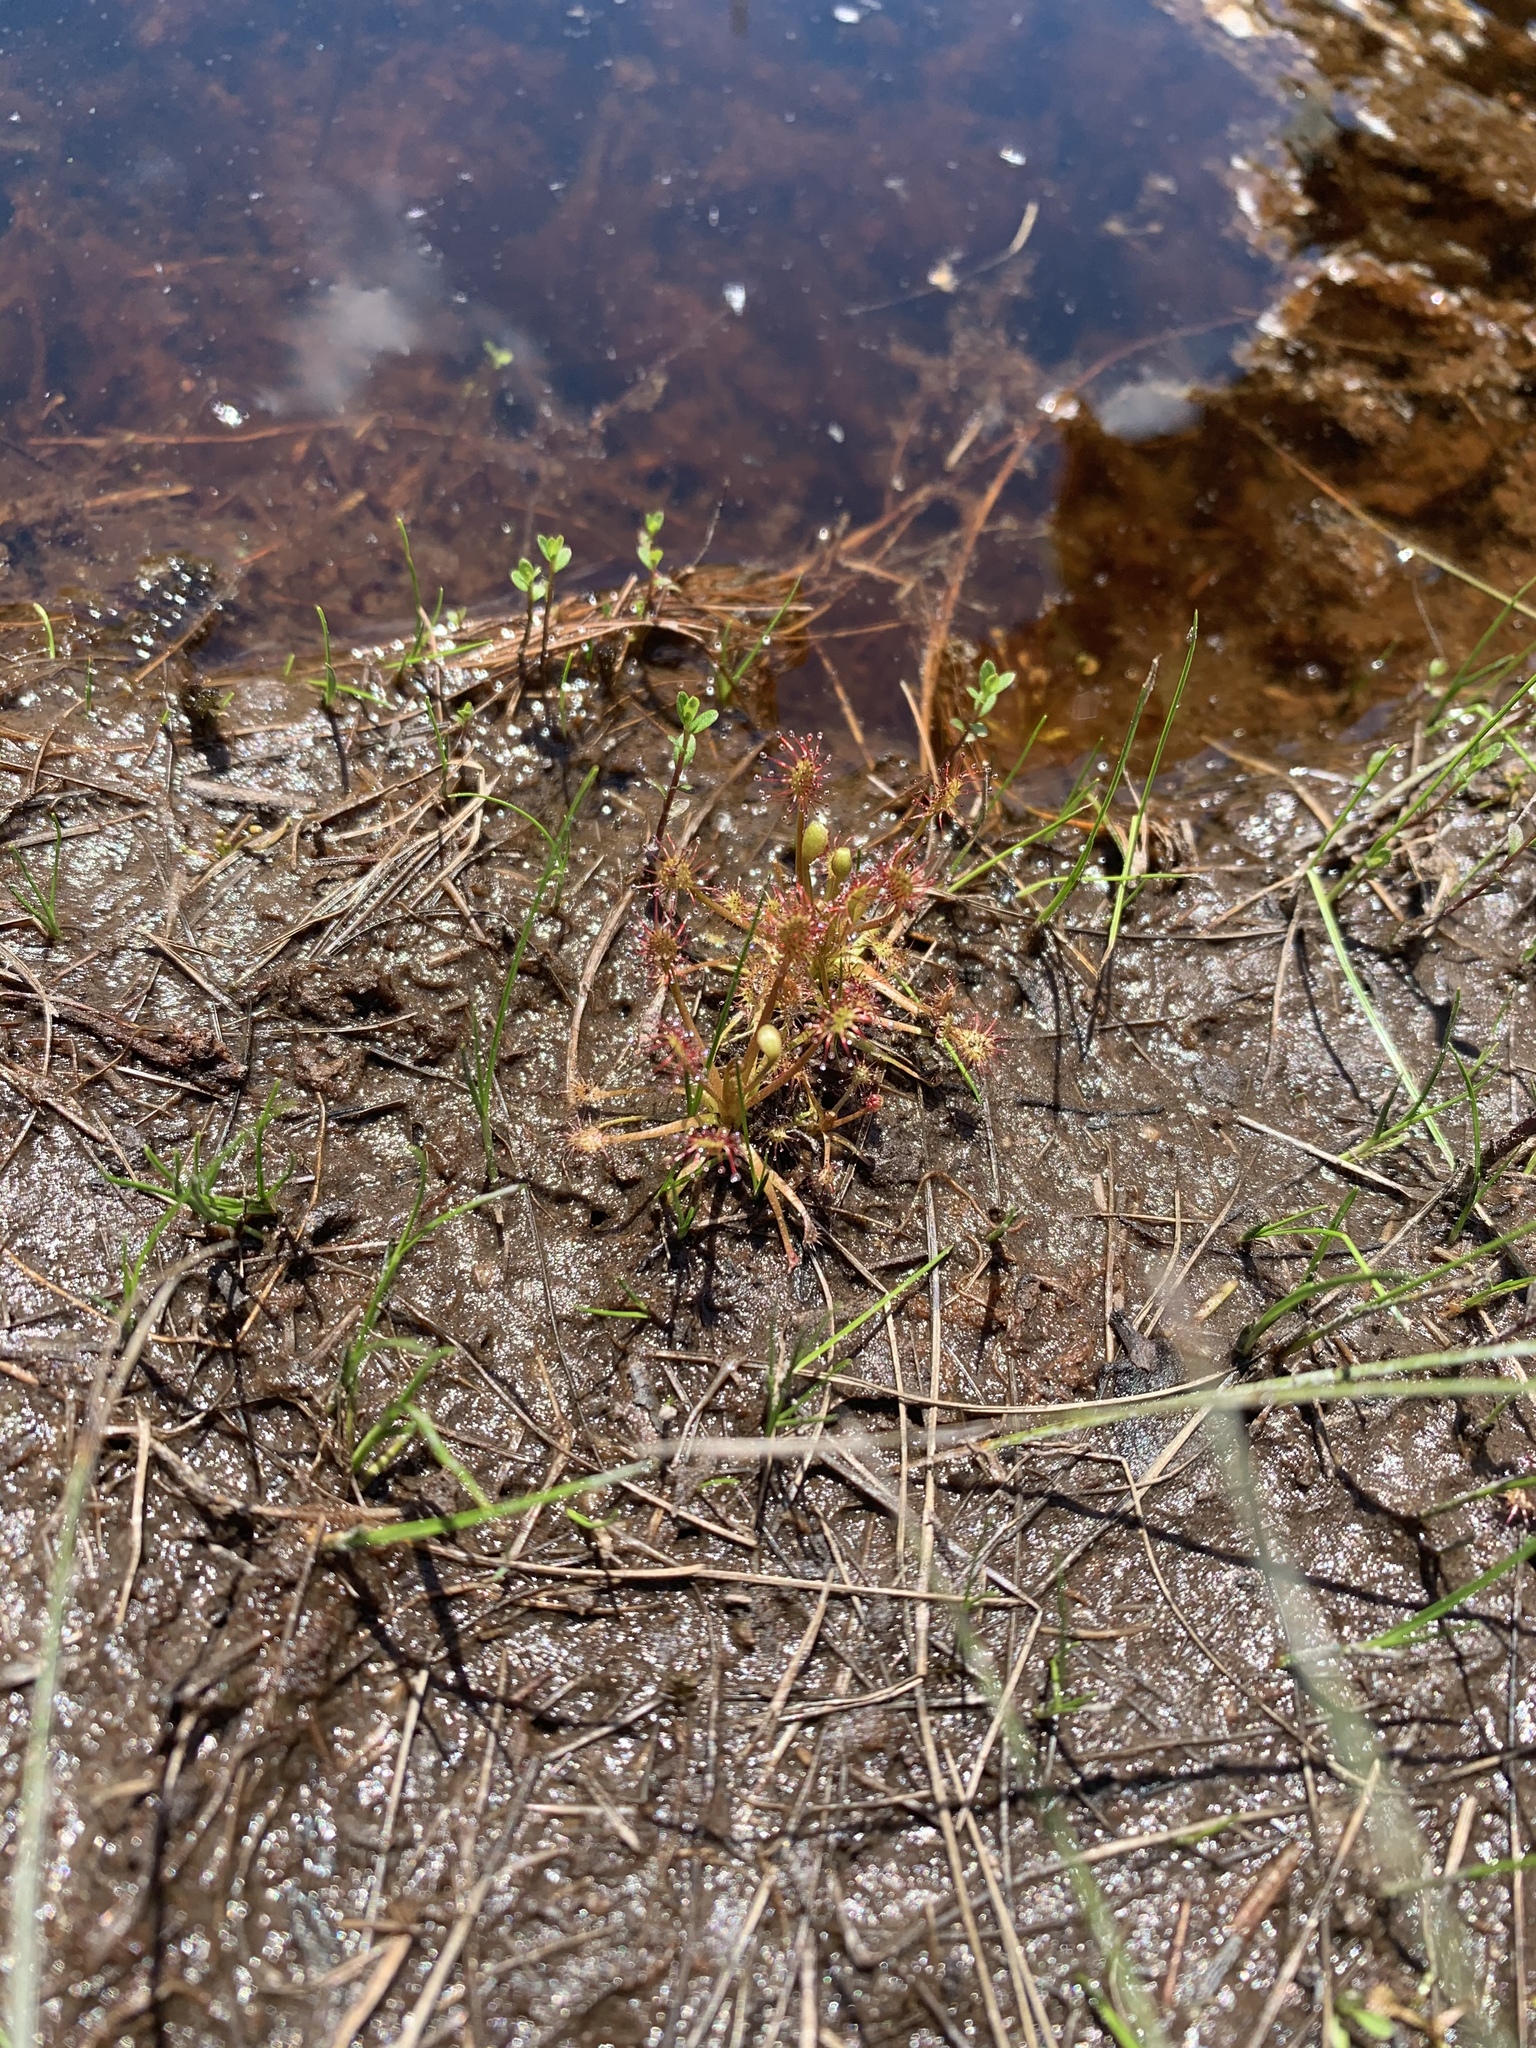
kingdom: Plantae
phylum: Tracheophyta
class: Magnoliopsida
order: Caryophyllales
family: Droseraceae
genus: Drosera
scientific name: Drosera intermedia
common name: Oblong-leaved sundew
